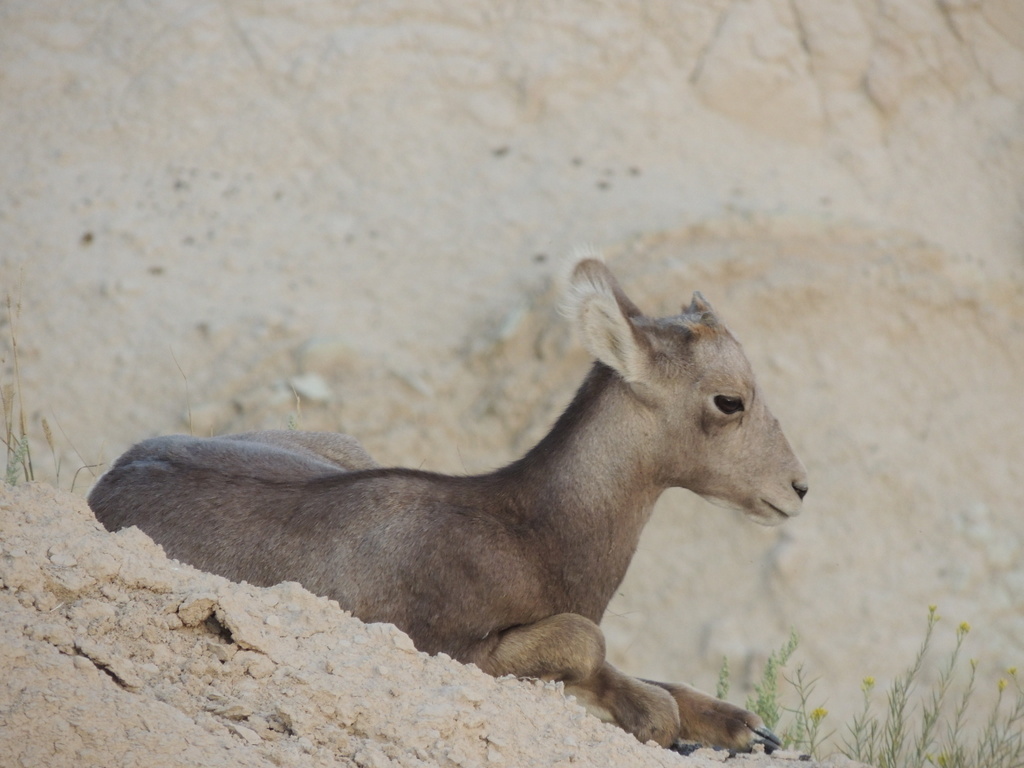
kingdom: Animalia
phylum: Chordata
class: Mammalia
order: Artiodactyla
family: Bovidae
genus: Ovis
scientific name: Ovis canadensis
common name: Bighorn sheep
